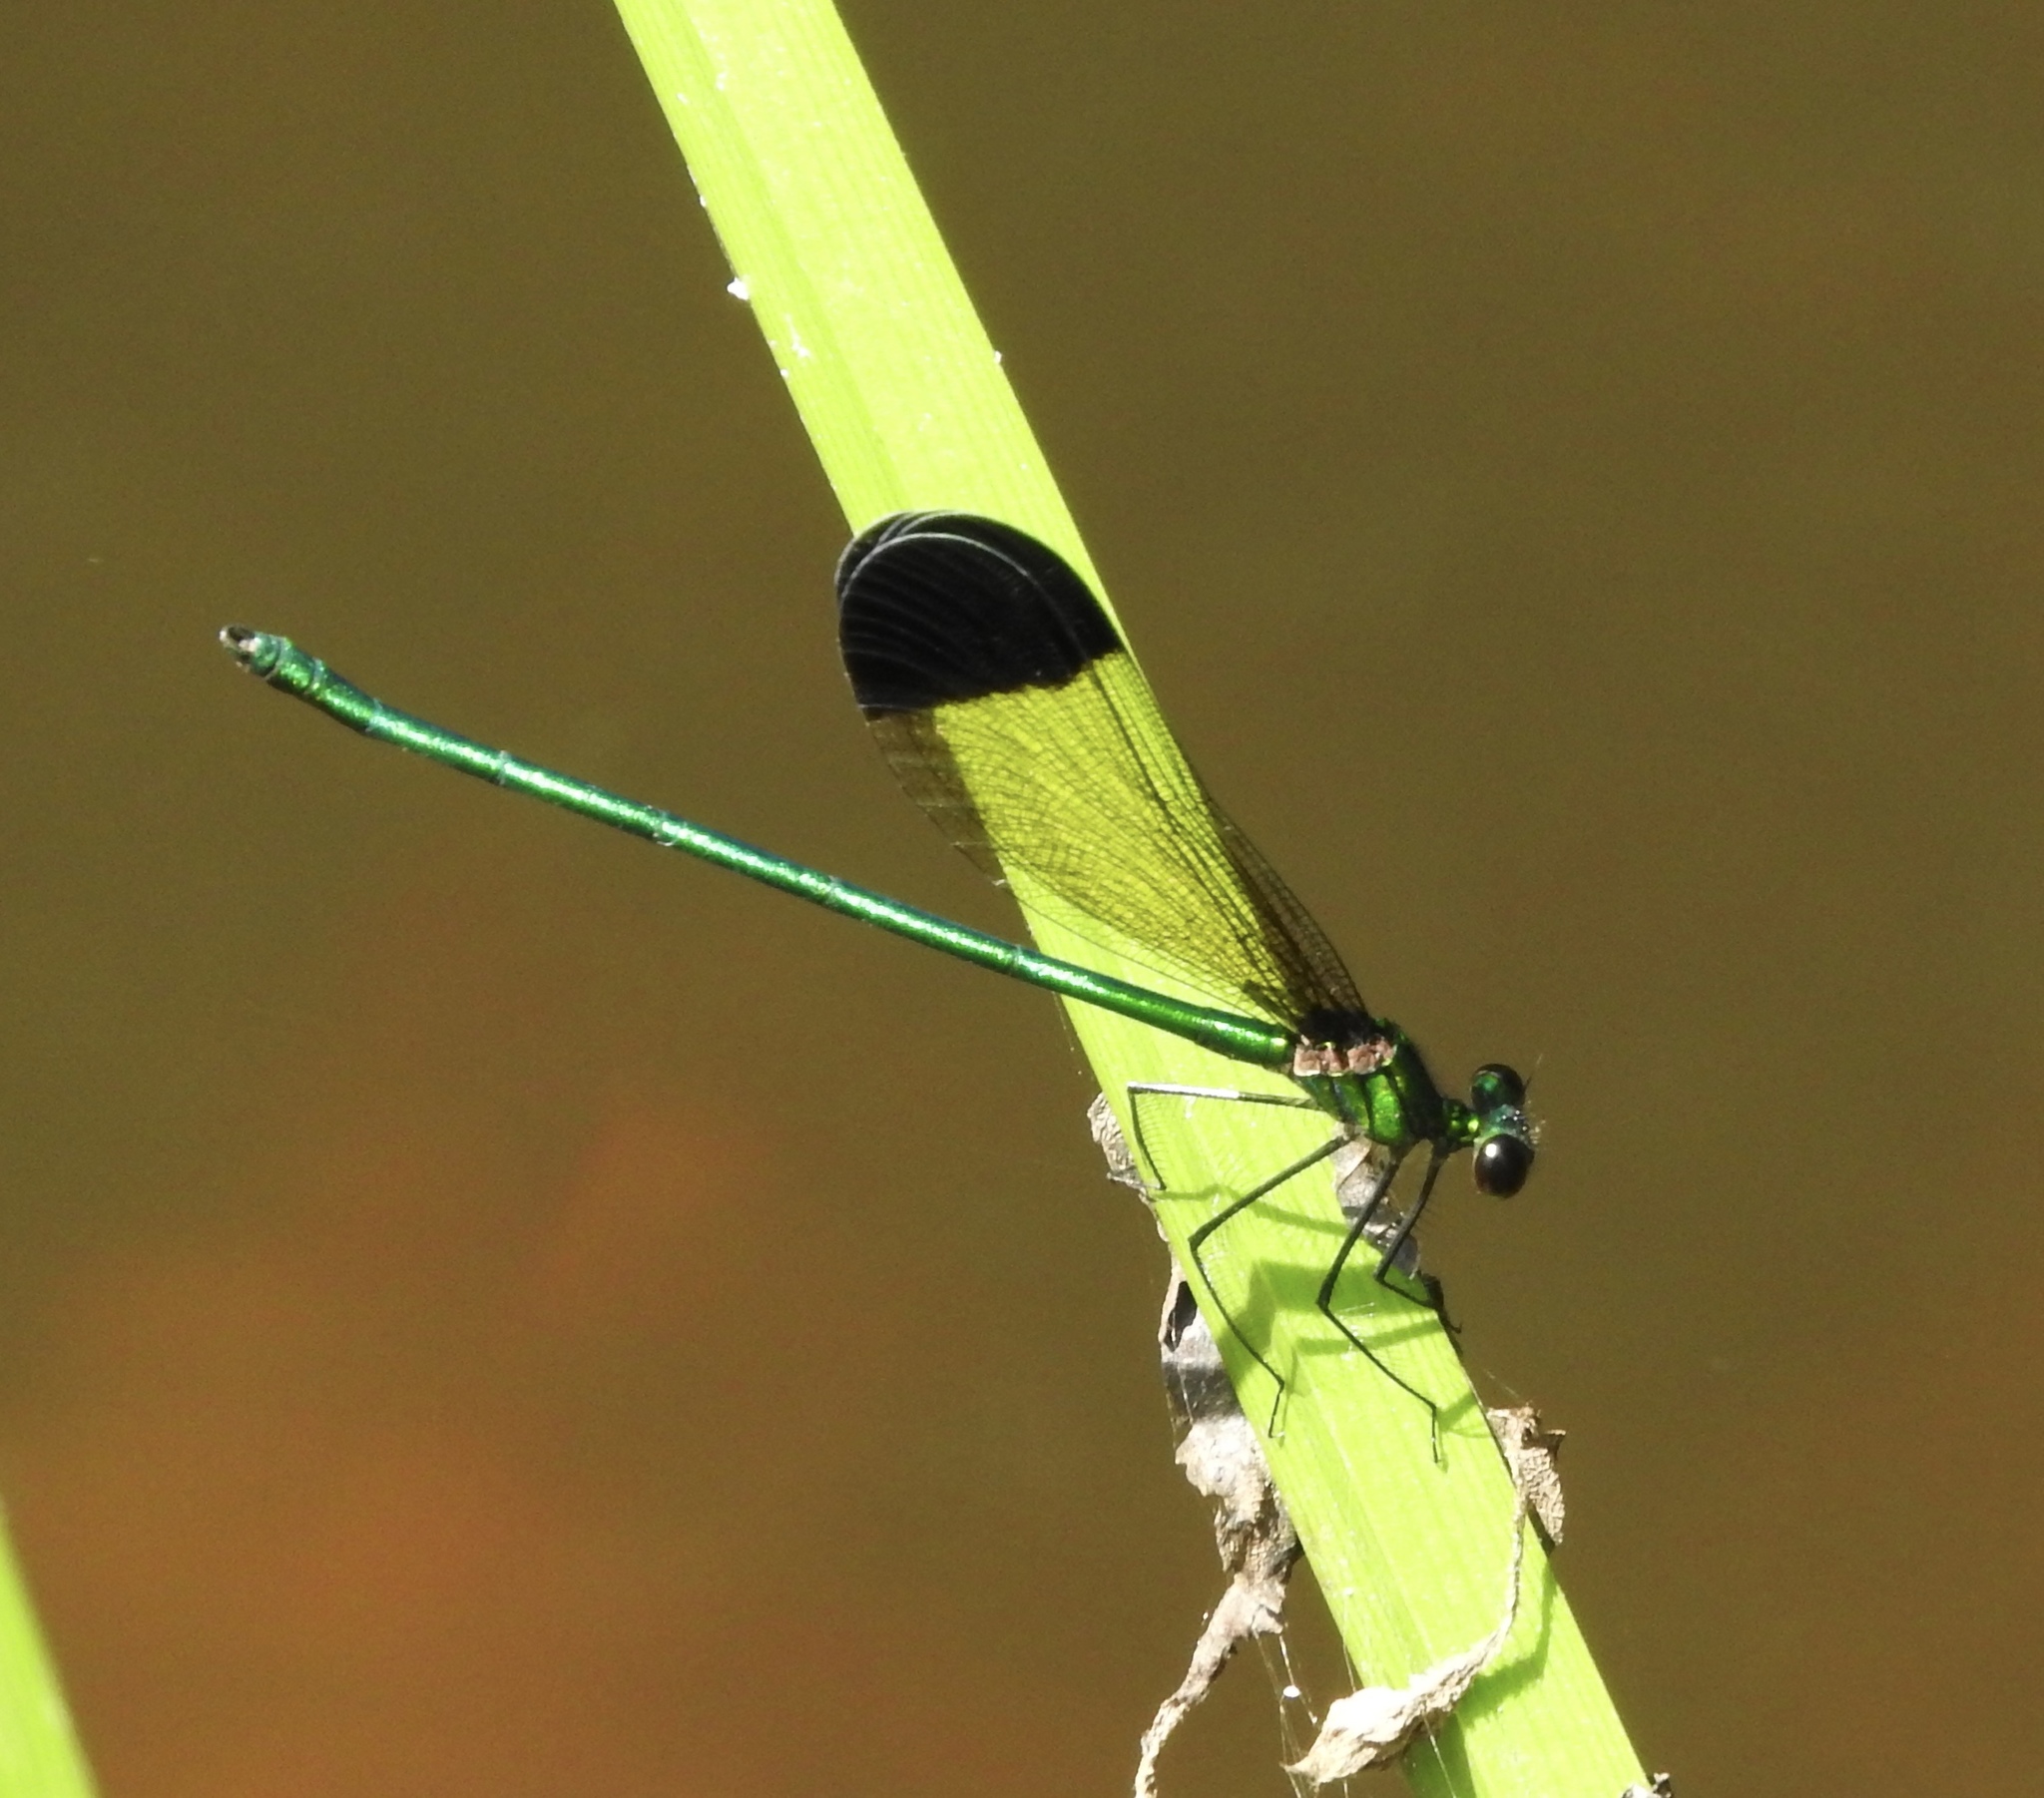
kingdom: Animalia
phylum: Arthropoda
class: Insecta
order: Odonata
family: Calopterygidae
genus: Calopteryx
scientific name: Calopteryx dimidiata
